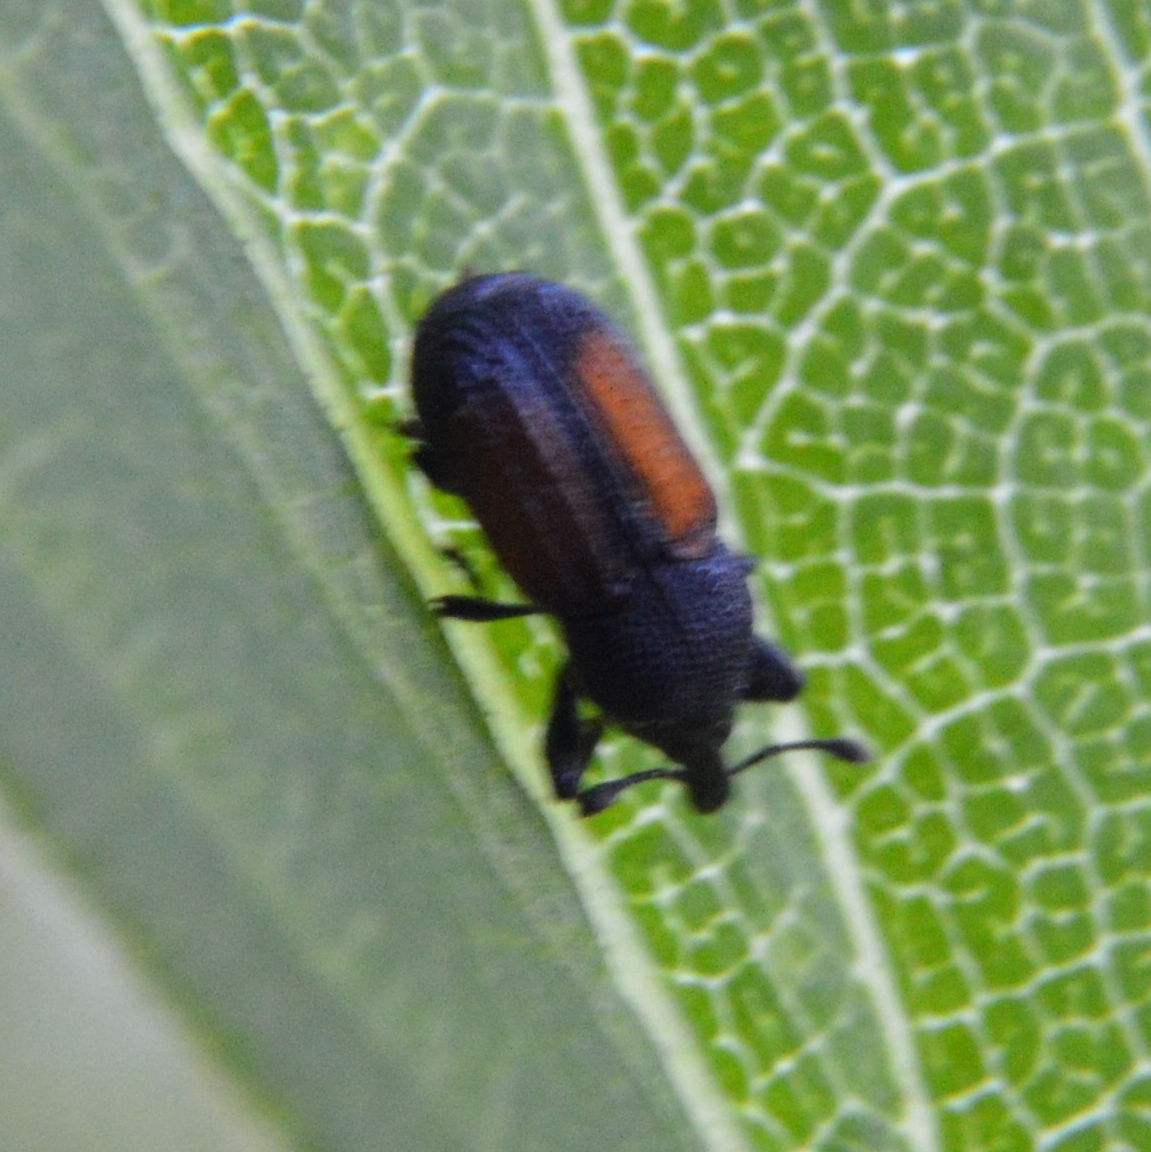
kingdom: Animalia
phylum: Arthropoda
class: Insecta
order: Coleoptera
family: Curculionidae
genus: Laemosaccus
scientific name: Laemosaccus nephele
